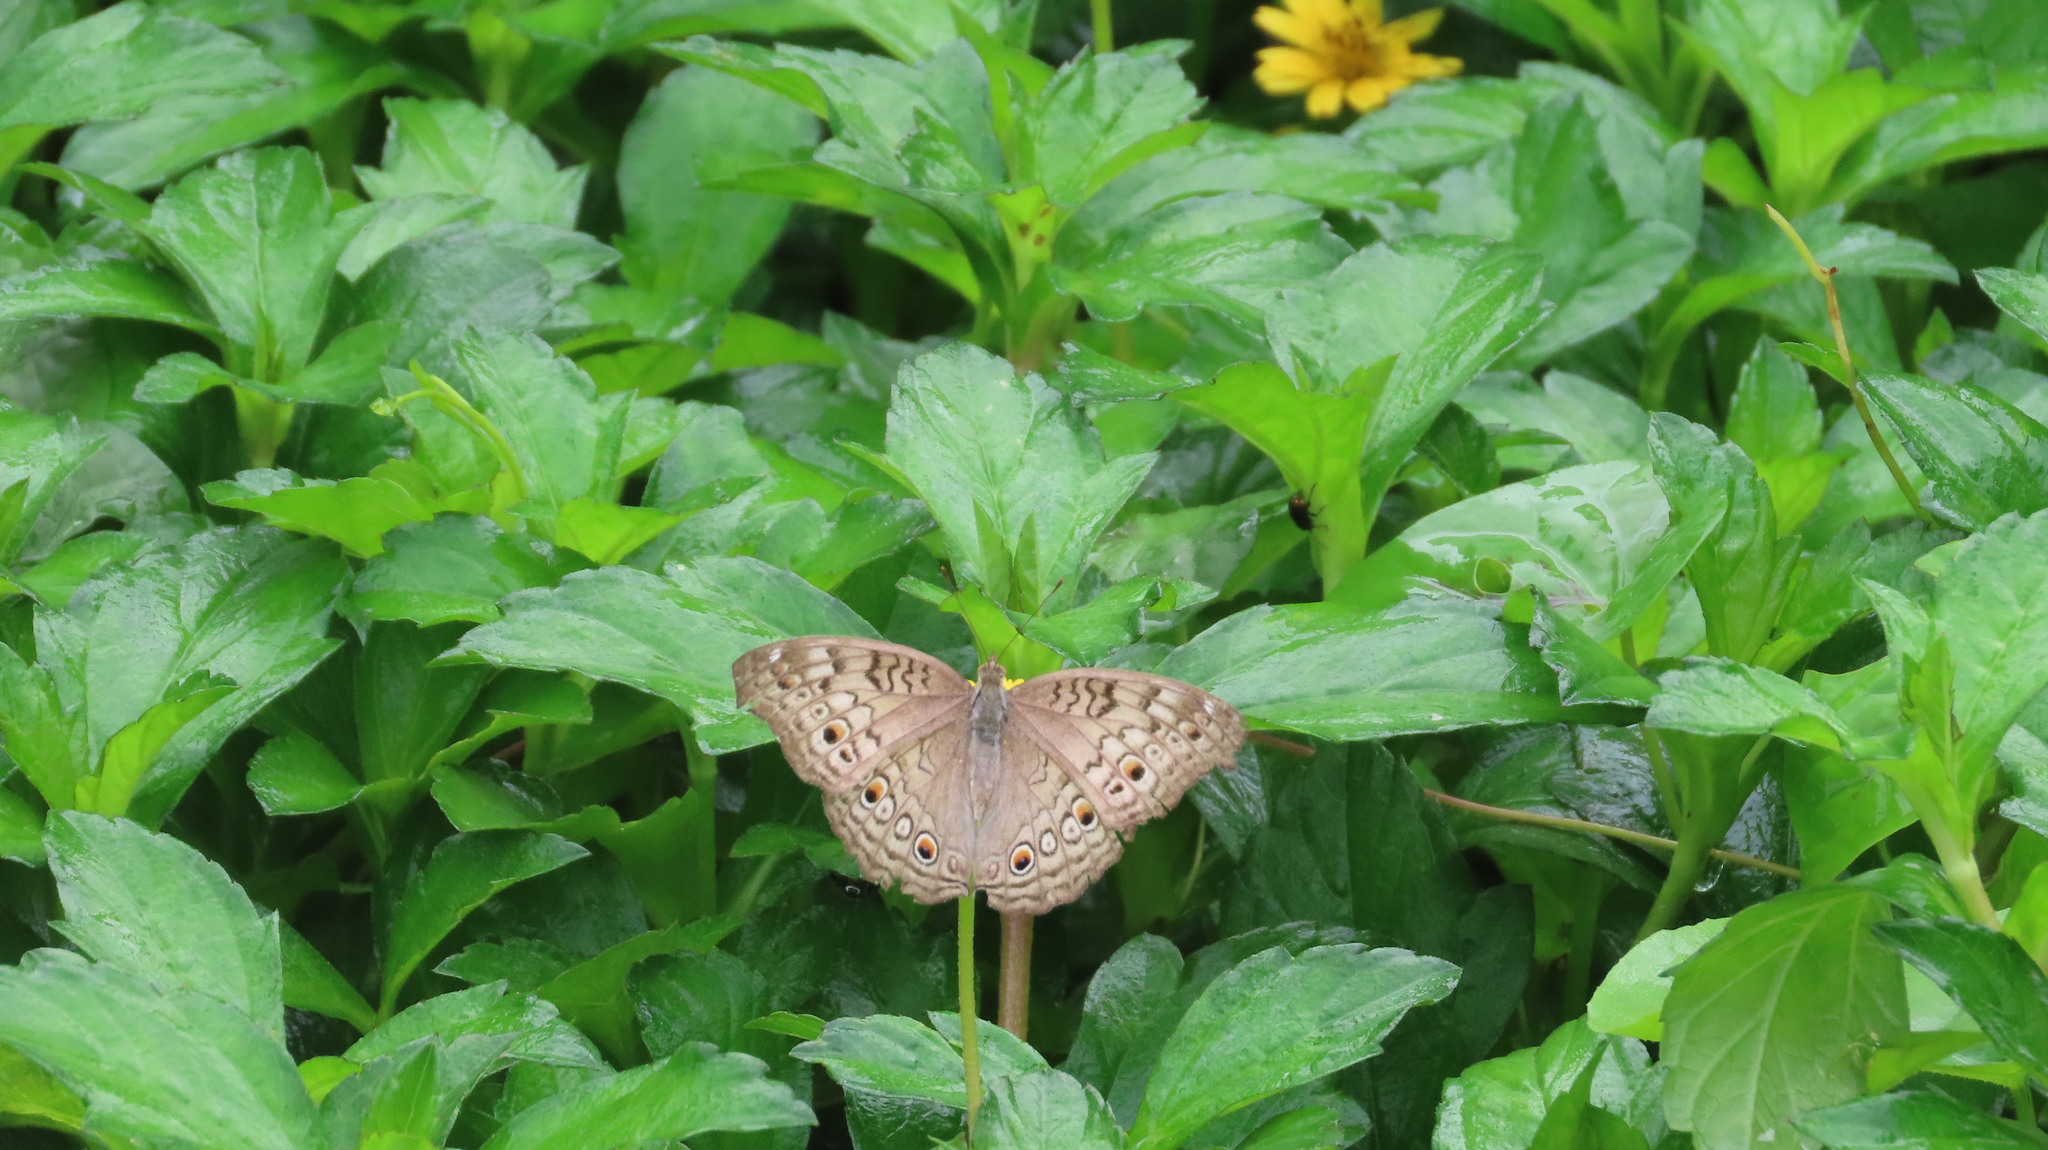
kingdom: Animalia
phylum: Arthropoda
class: Insecta
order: Lepidoptera
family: Nymphalidae
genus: Junonia
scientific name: Junonia atlites
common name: Grey pansy
